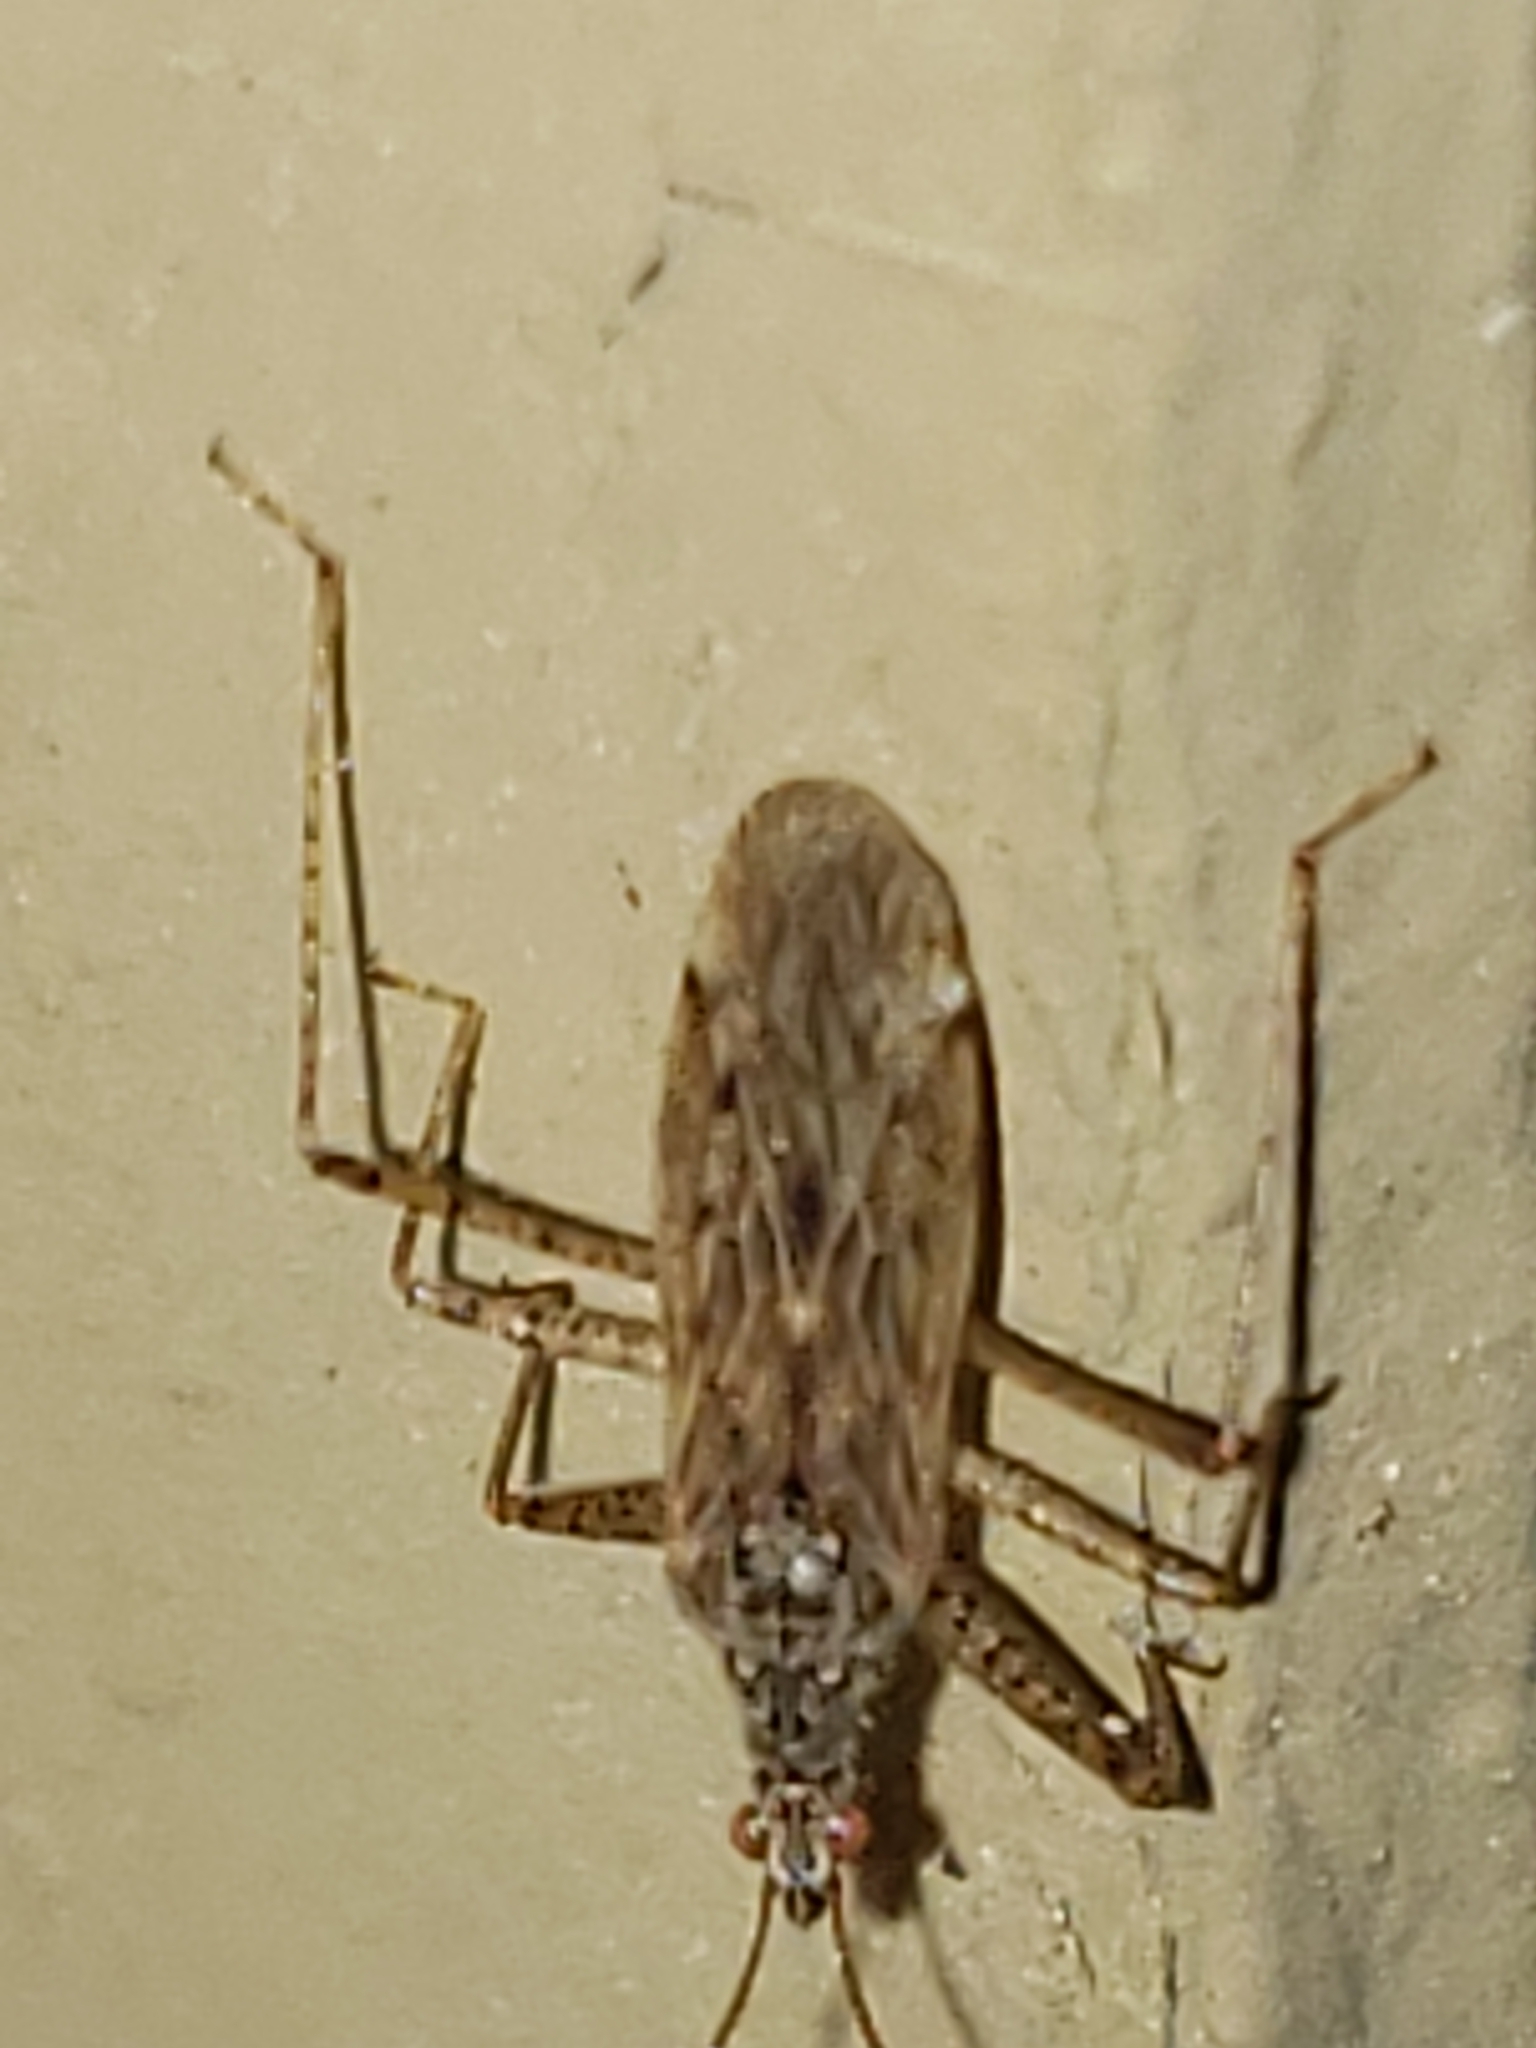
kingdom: Animalia
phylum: Arthropoda
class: Insecta
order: Hemiptera
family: Nabidae
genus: Nabis
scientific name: Nabis roseipennis
